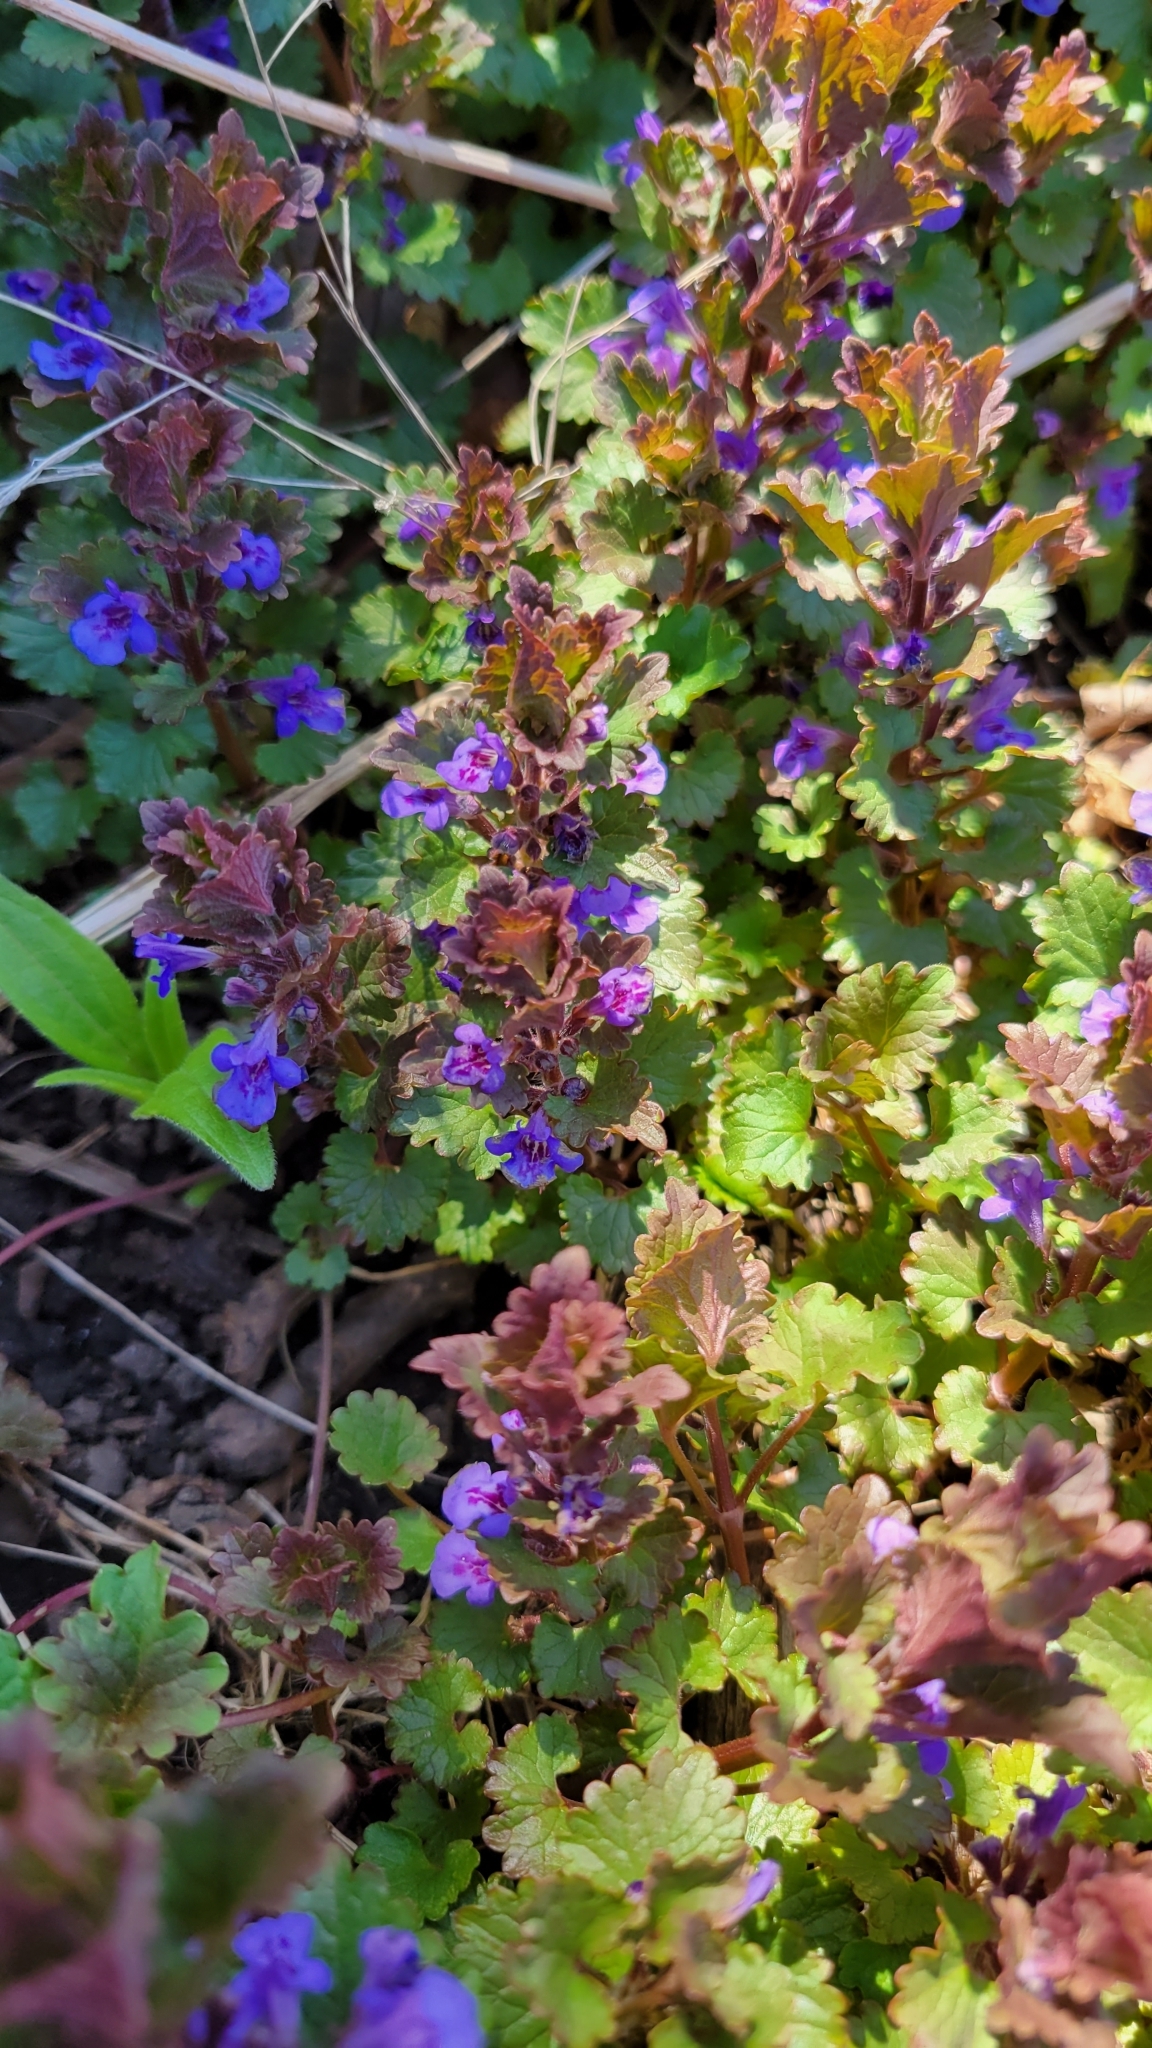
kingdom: Plantae
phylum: Tracheophyta
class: Magnoliopsida
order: Lamiales
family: Lamiaceae
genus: Glechoma
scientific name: Glechoma hederacea
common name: Ground ivy
